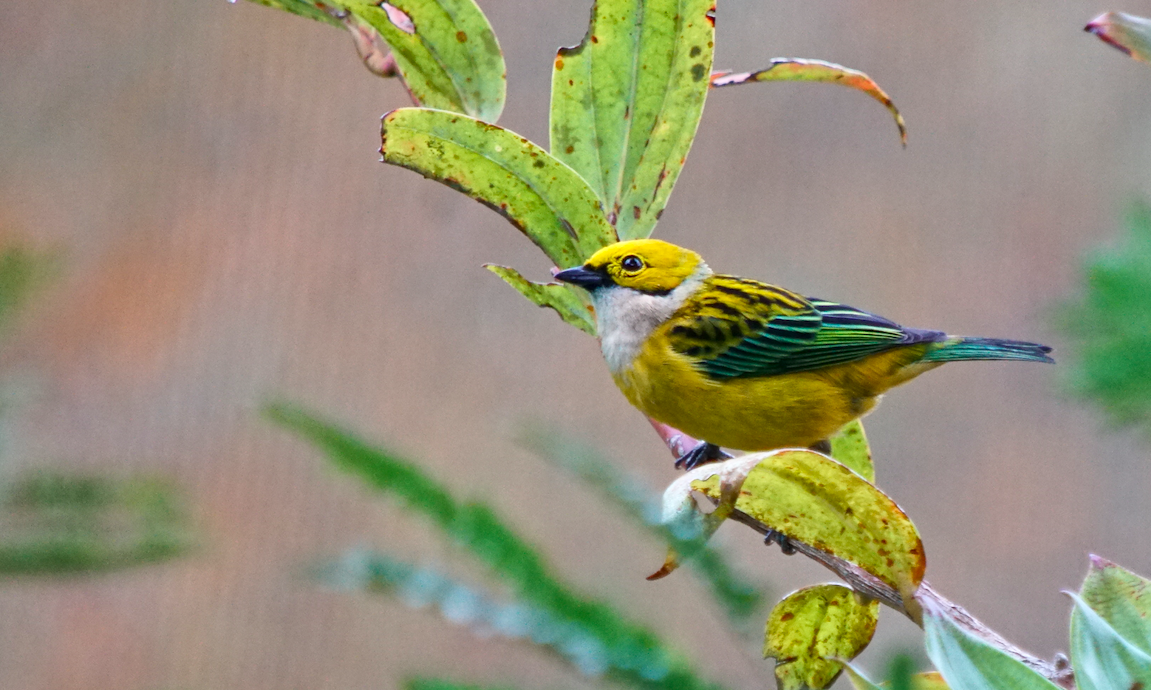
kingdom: Animalia
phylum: Chordata
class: Aves
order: Passeriformes
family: Thraupidae
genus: Tangara
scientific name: Tangara icterocephala
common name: Silver-throated tanager
